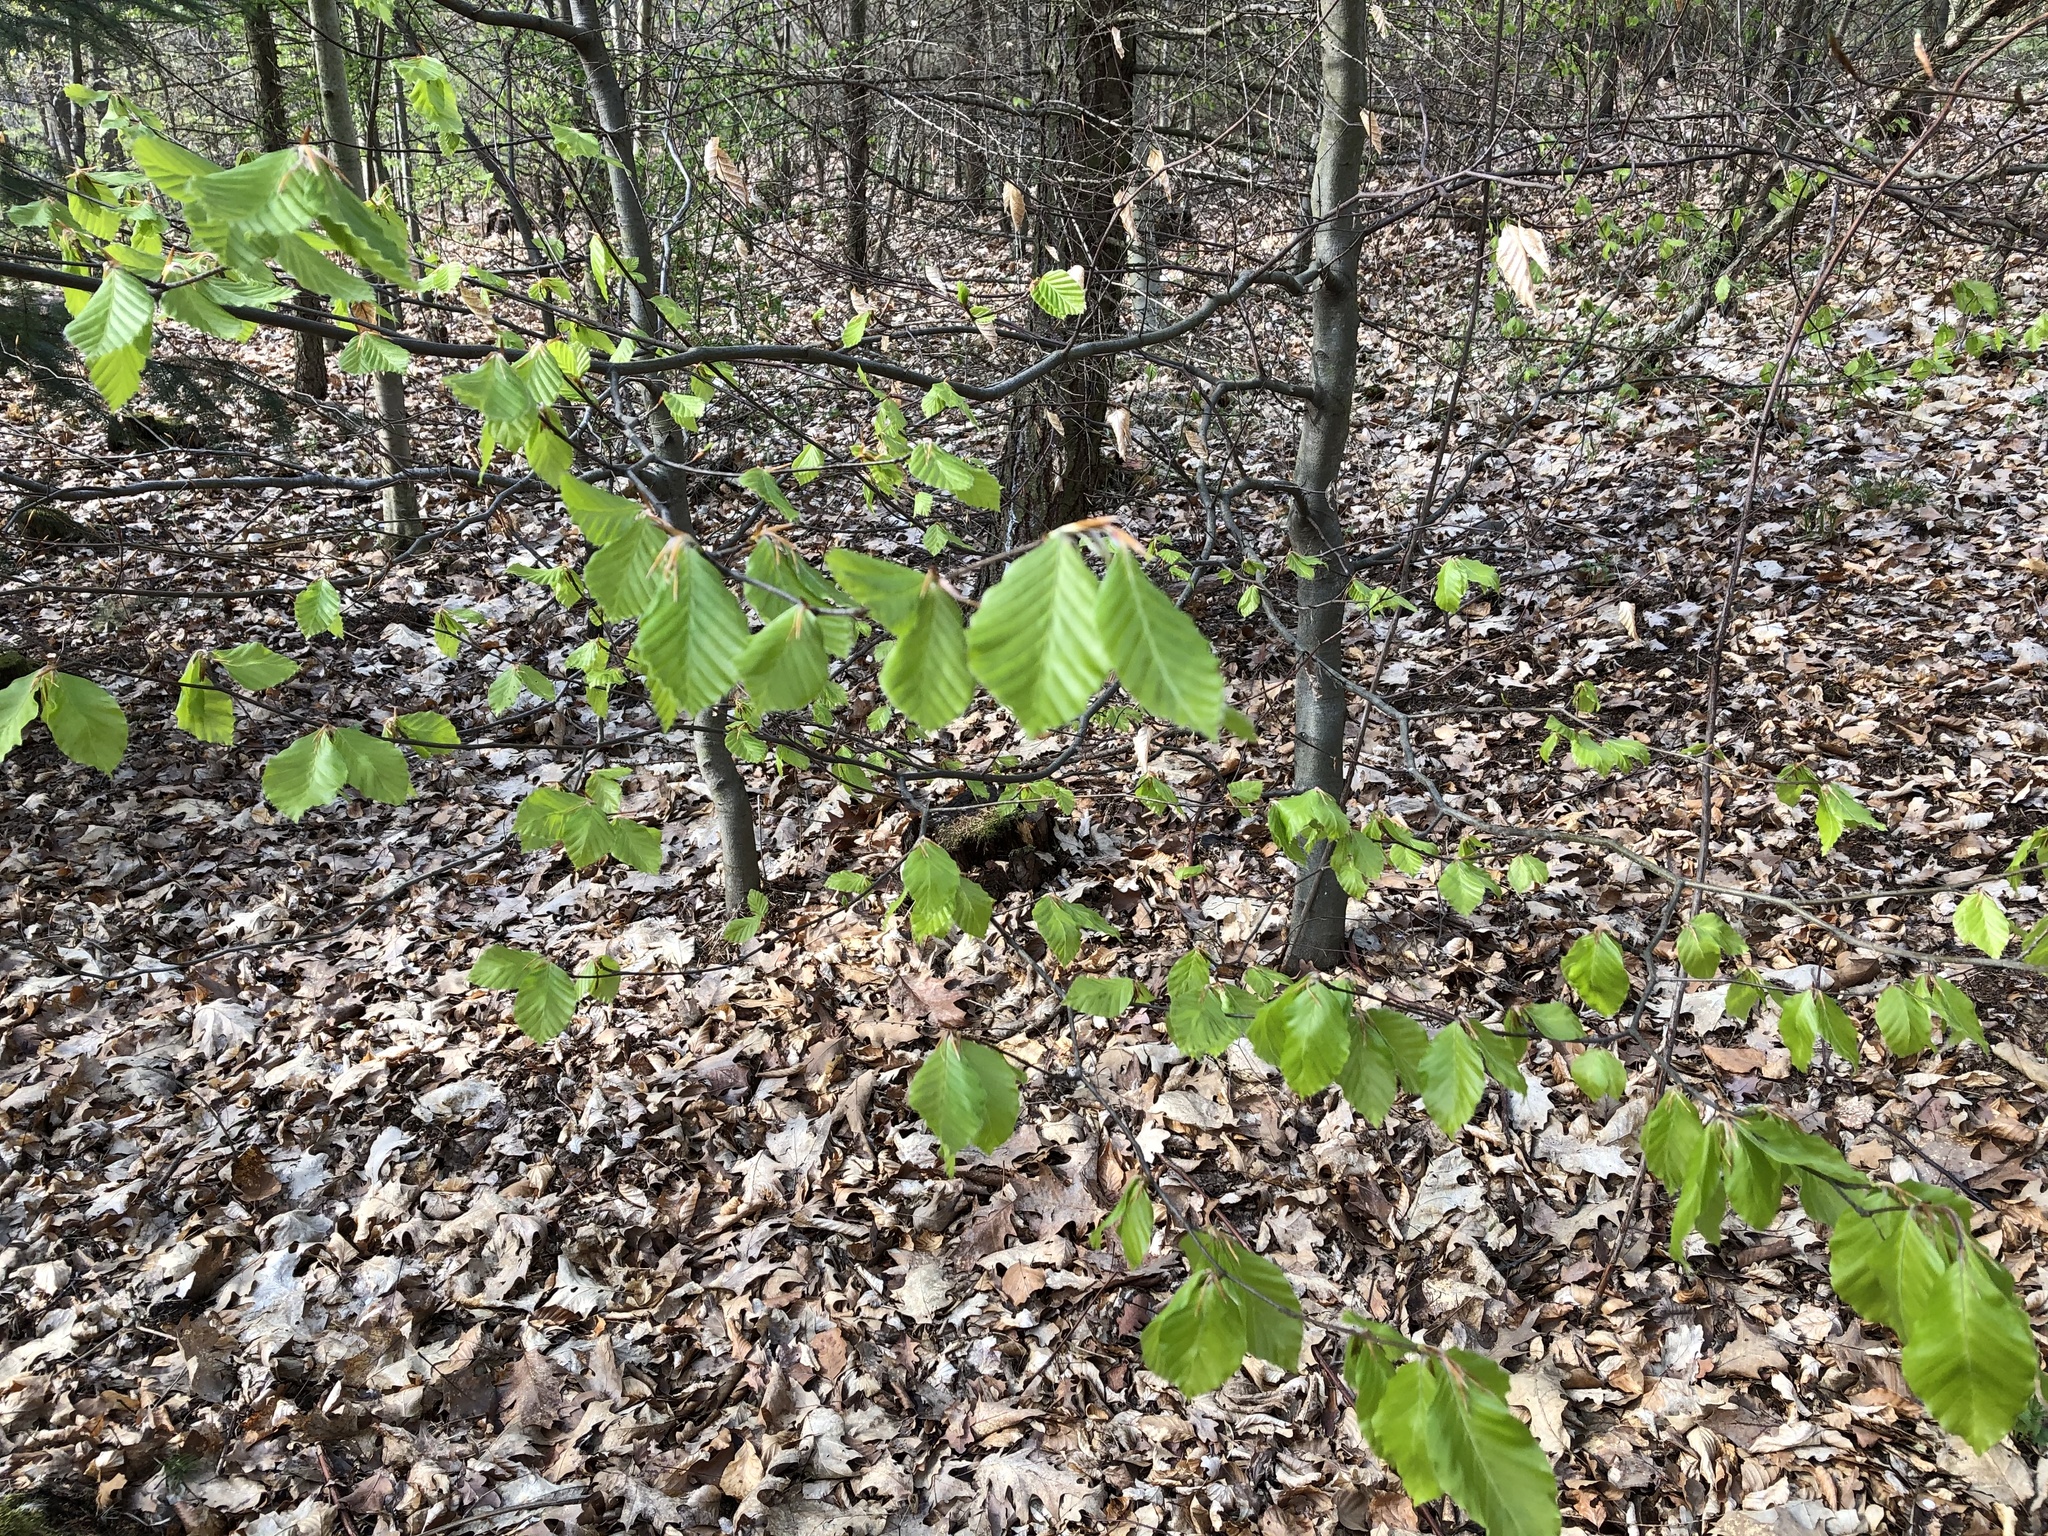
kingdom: Plantae
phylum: Tracheophyta
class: Magnoliopsida
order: Fagales
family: Fagaceae
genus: Fagus
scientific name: Fagus sylvatica
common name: Beech
